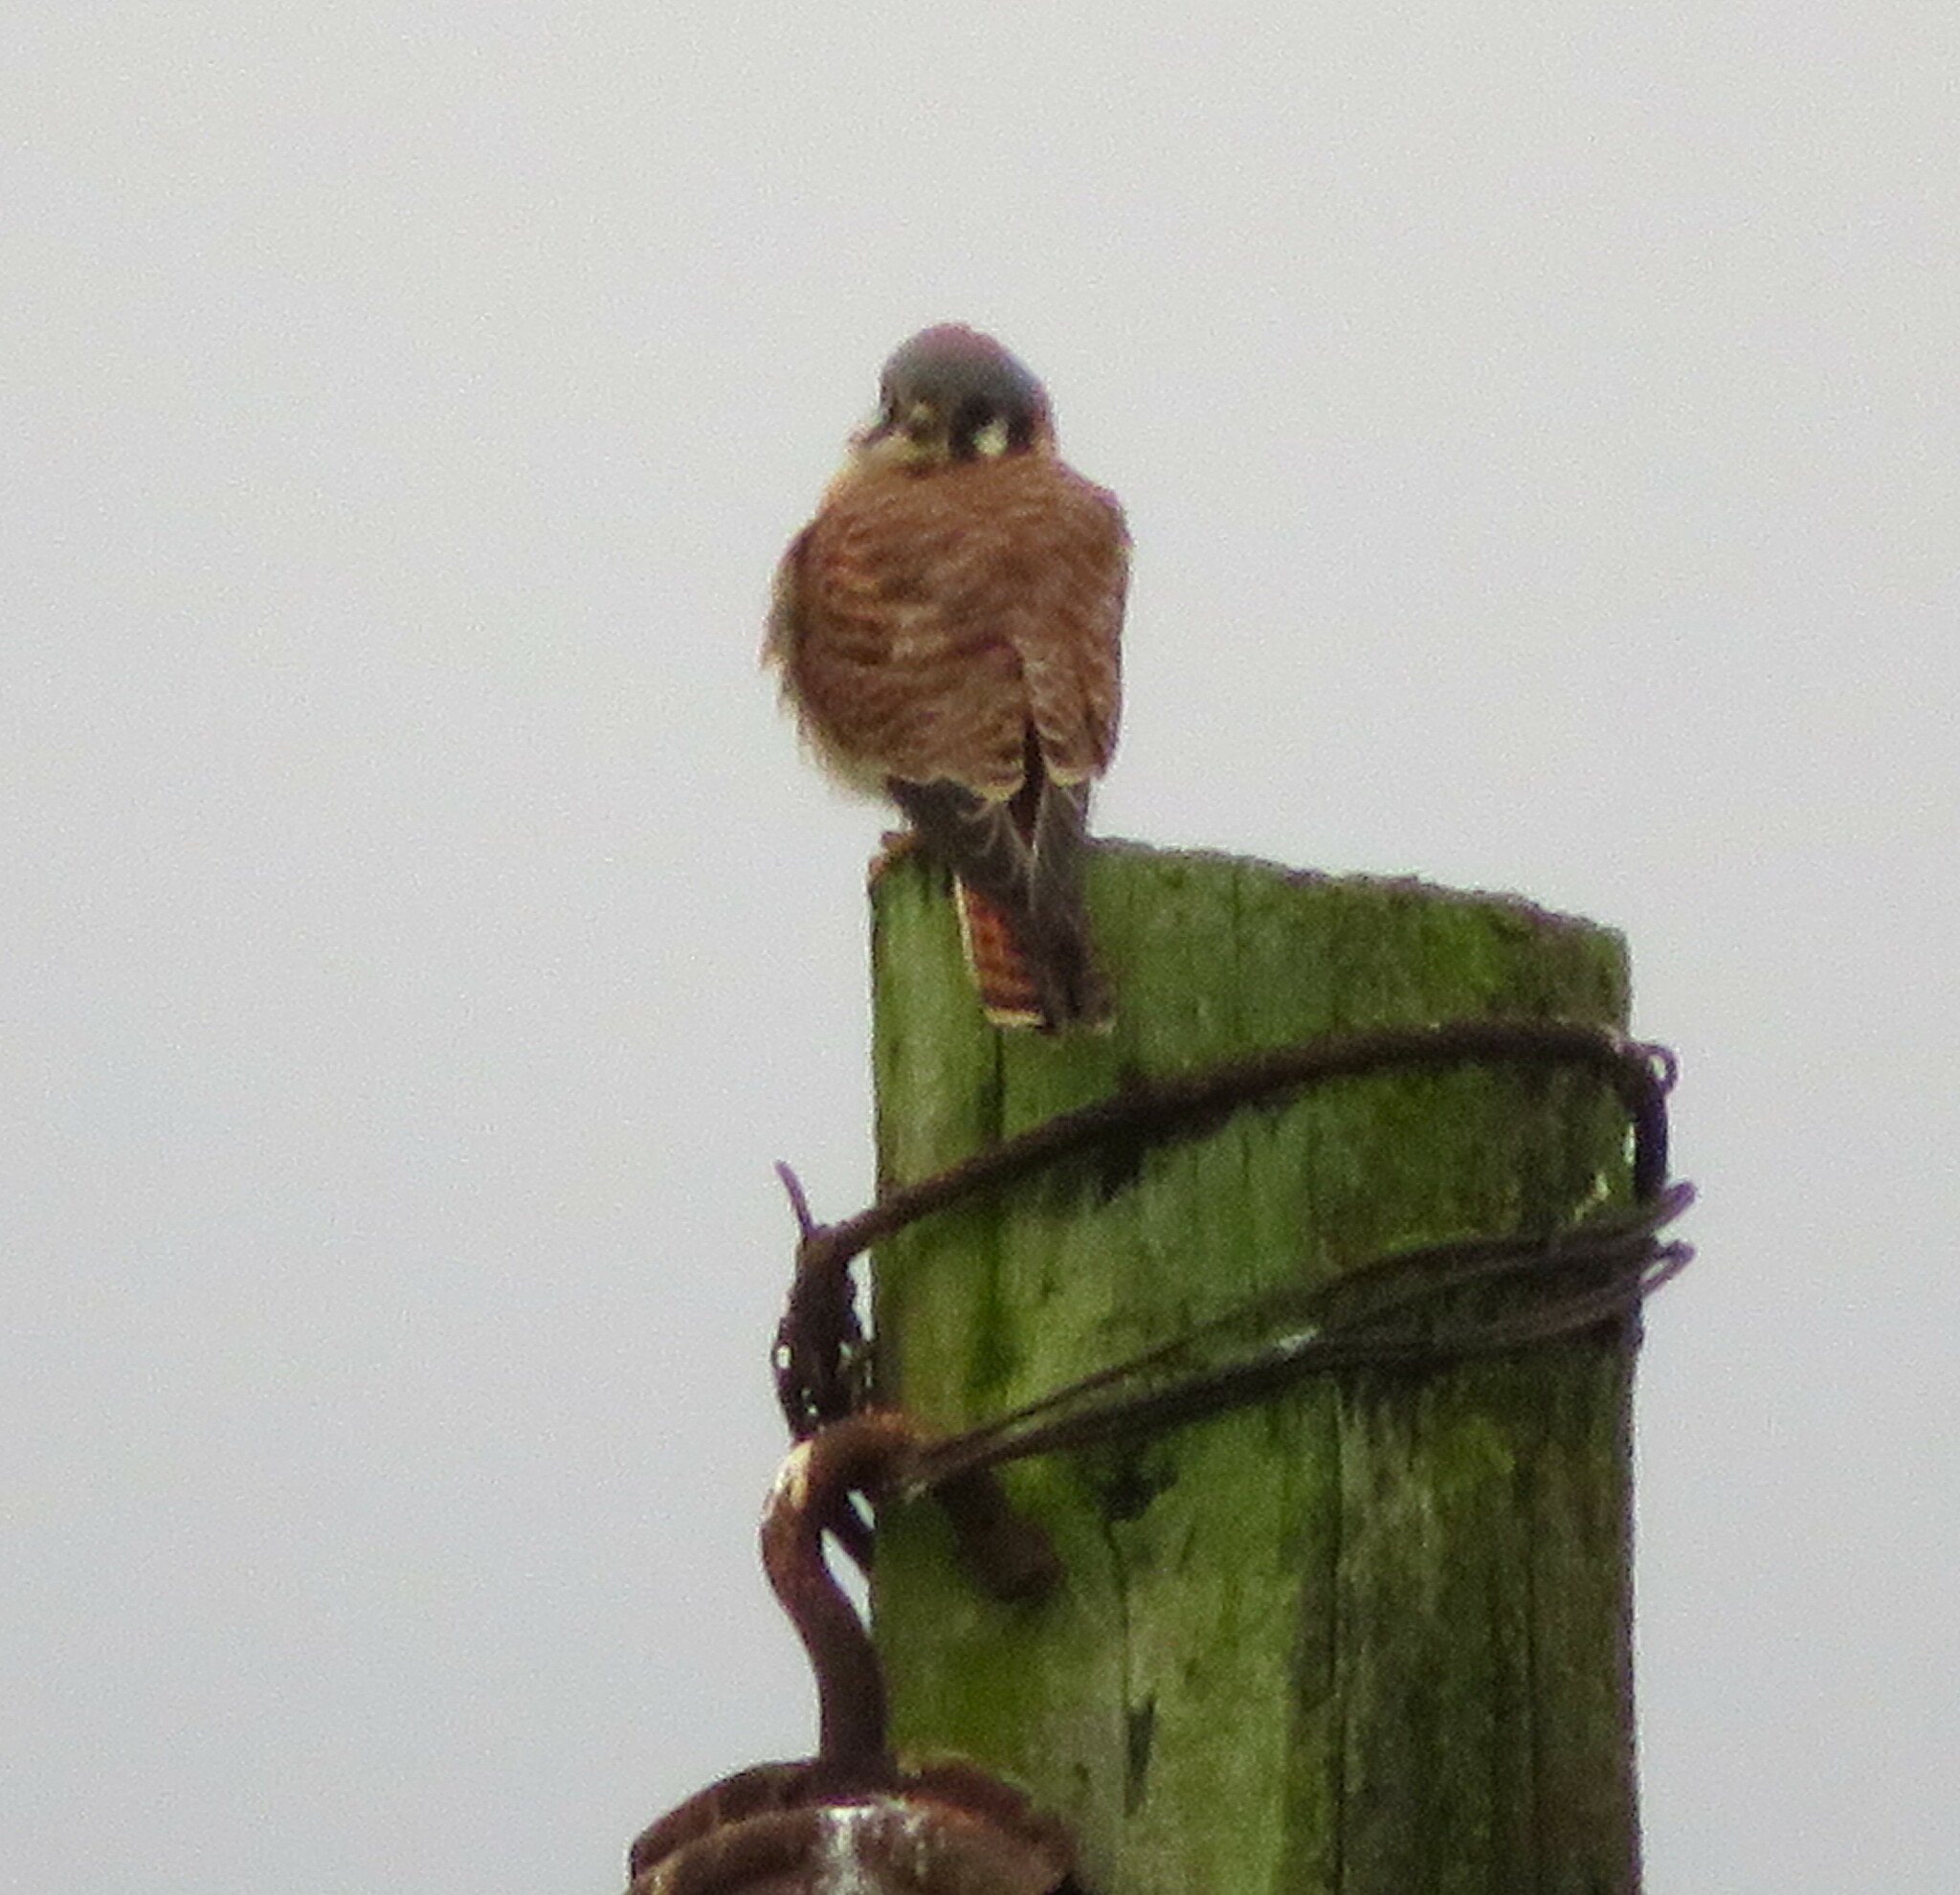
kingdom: Animalia
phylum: Chordata
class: Aves
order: Falconiformes
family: Falconidae
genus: Falco
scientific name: Falco sparverius
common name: American kestrel
